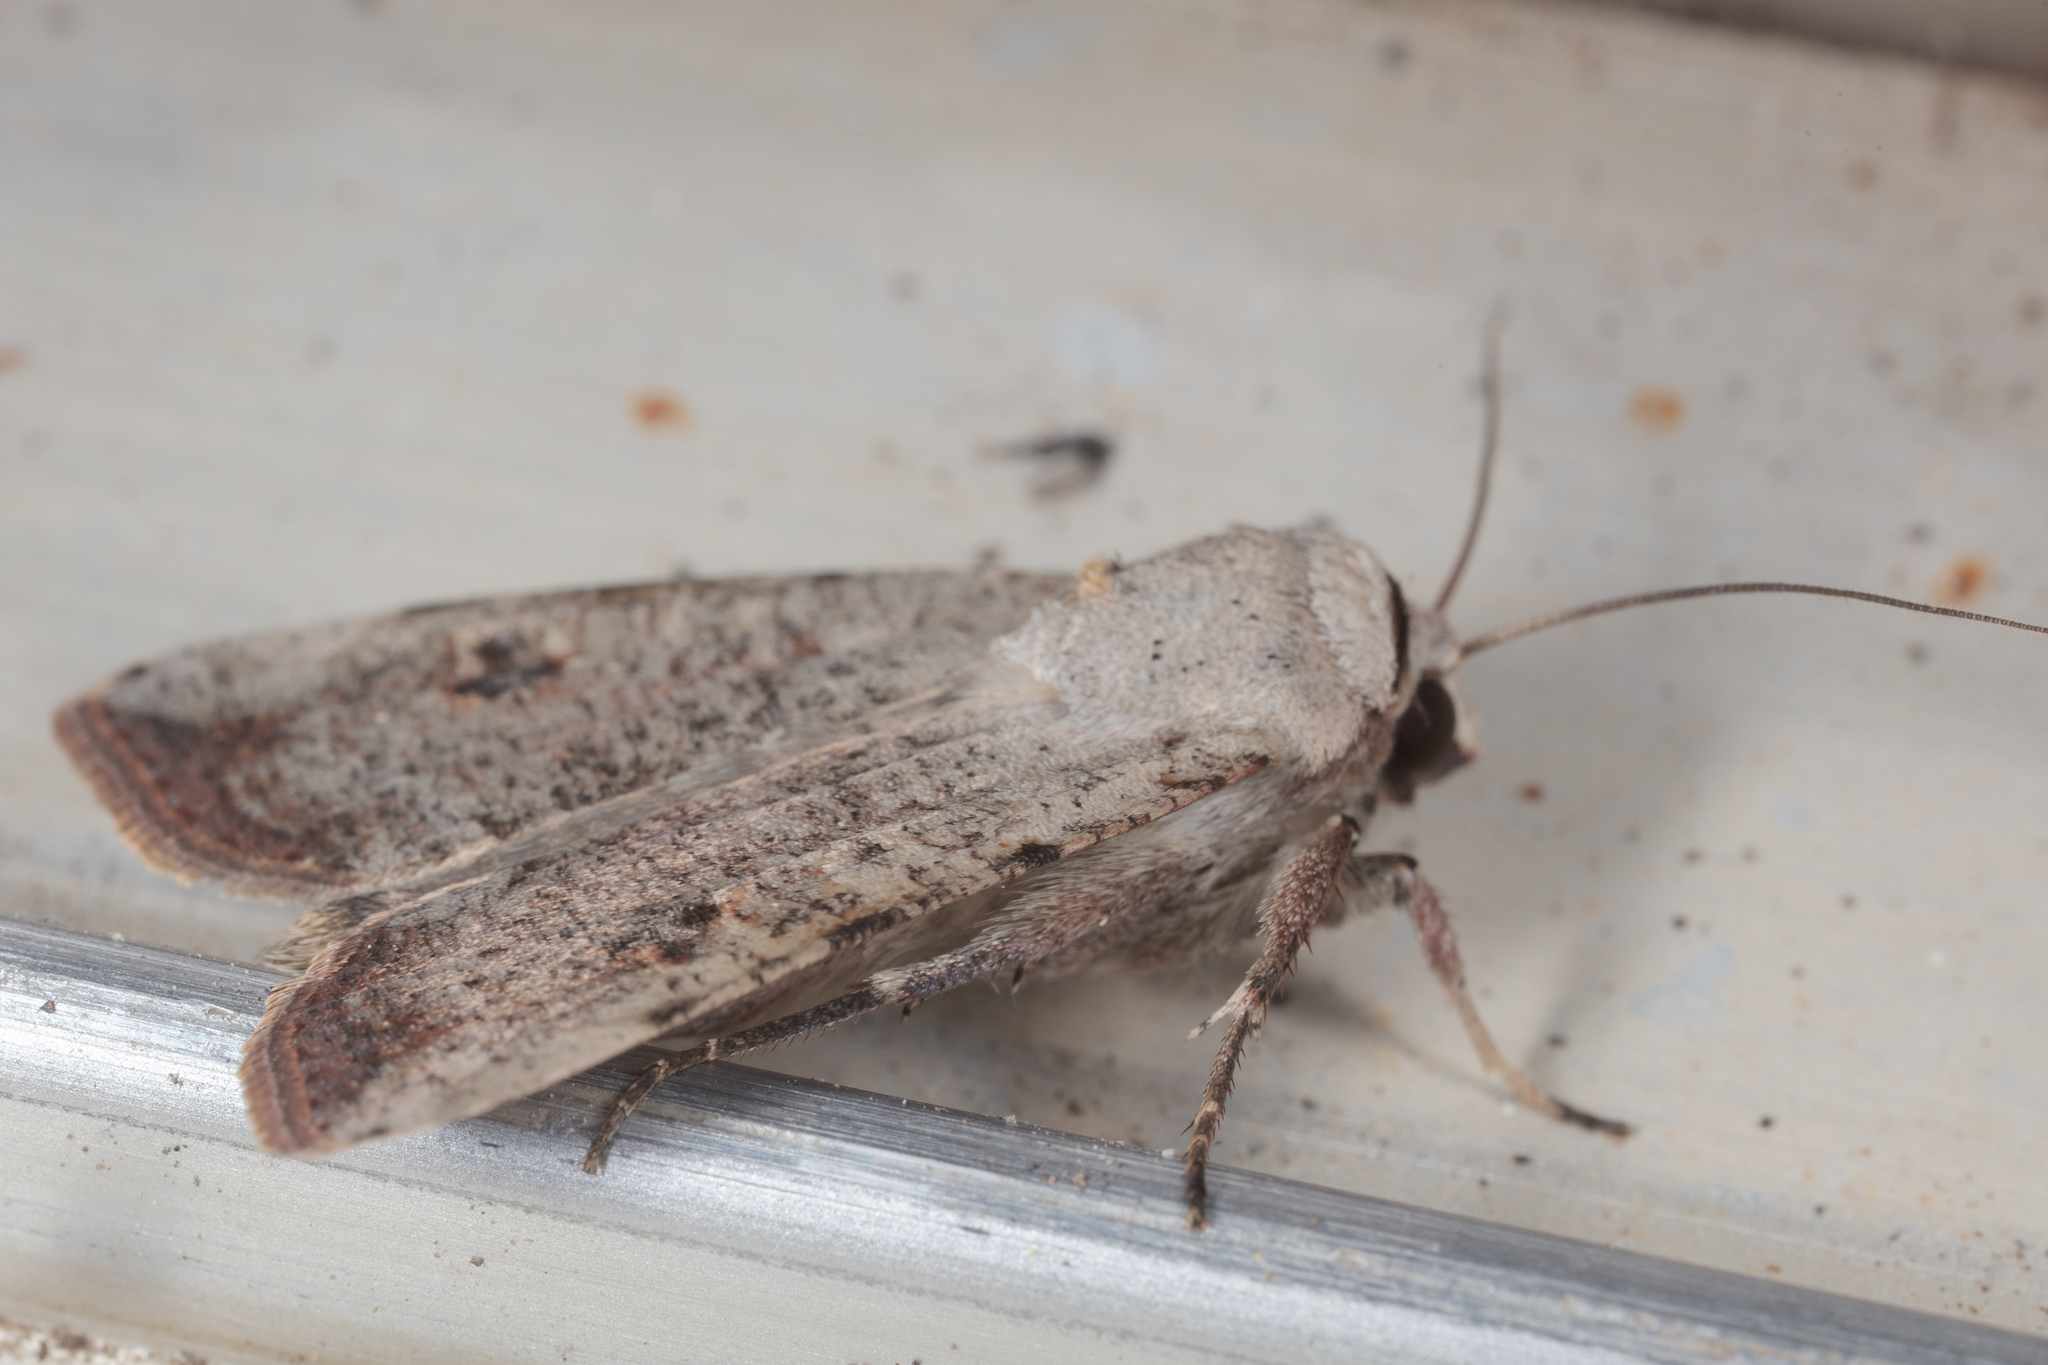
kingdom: Animalia
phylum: Arthropoda
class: Insecta
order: Lepidoptera
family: Noctuidae
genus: Anicla
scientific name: Anicla infecta
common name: Green cutworm
